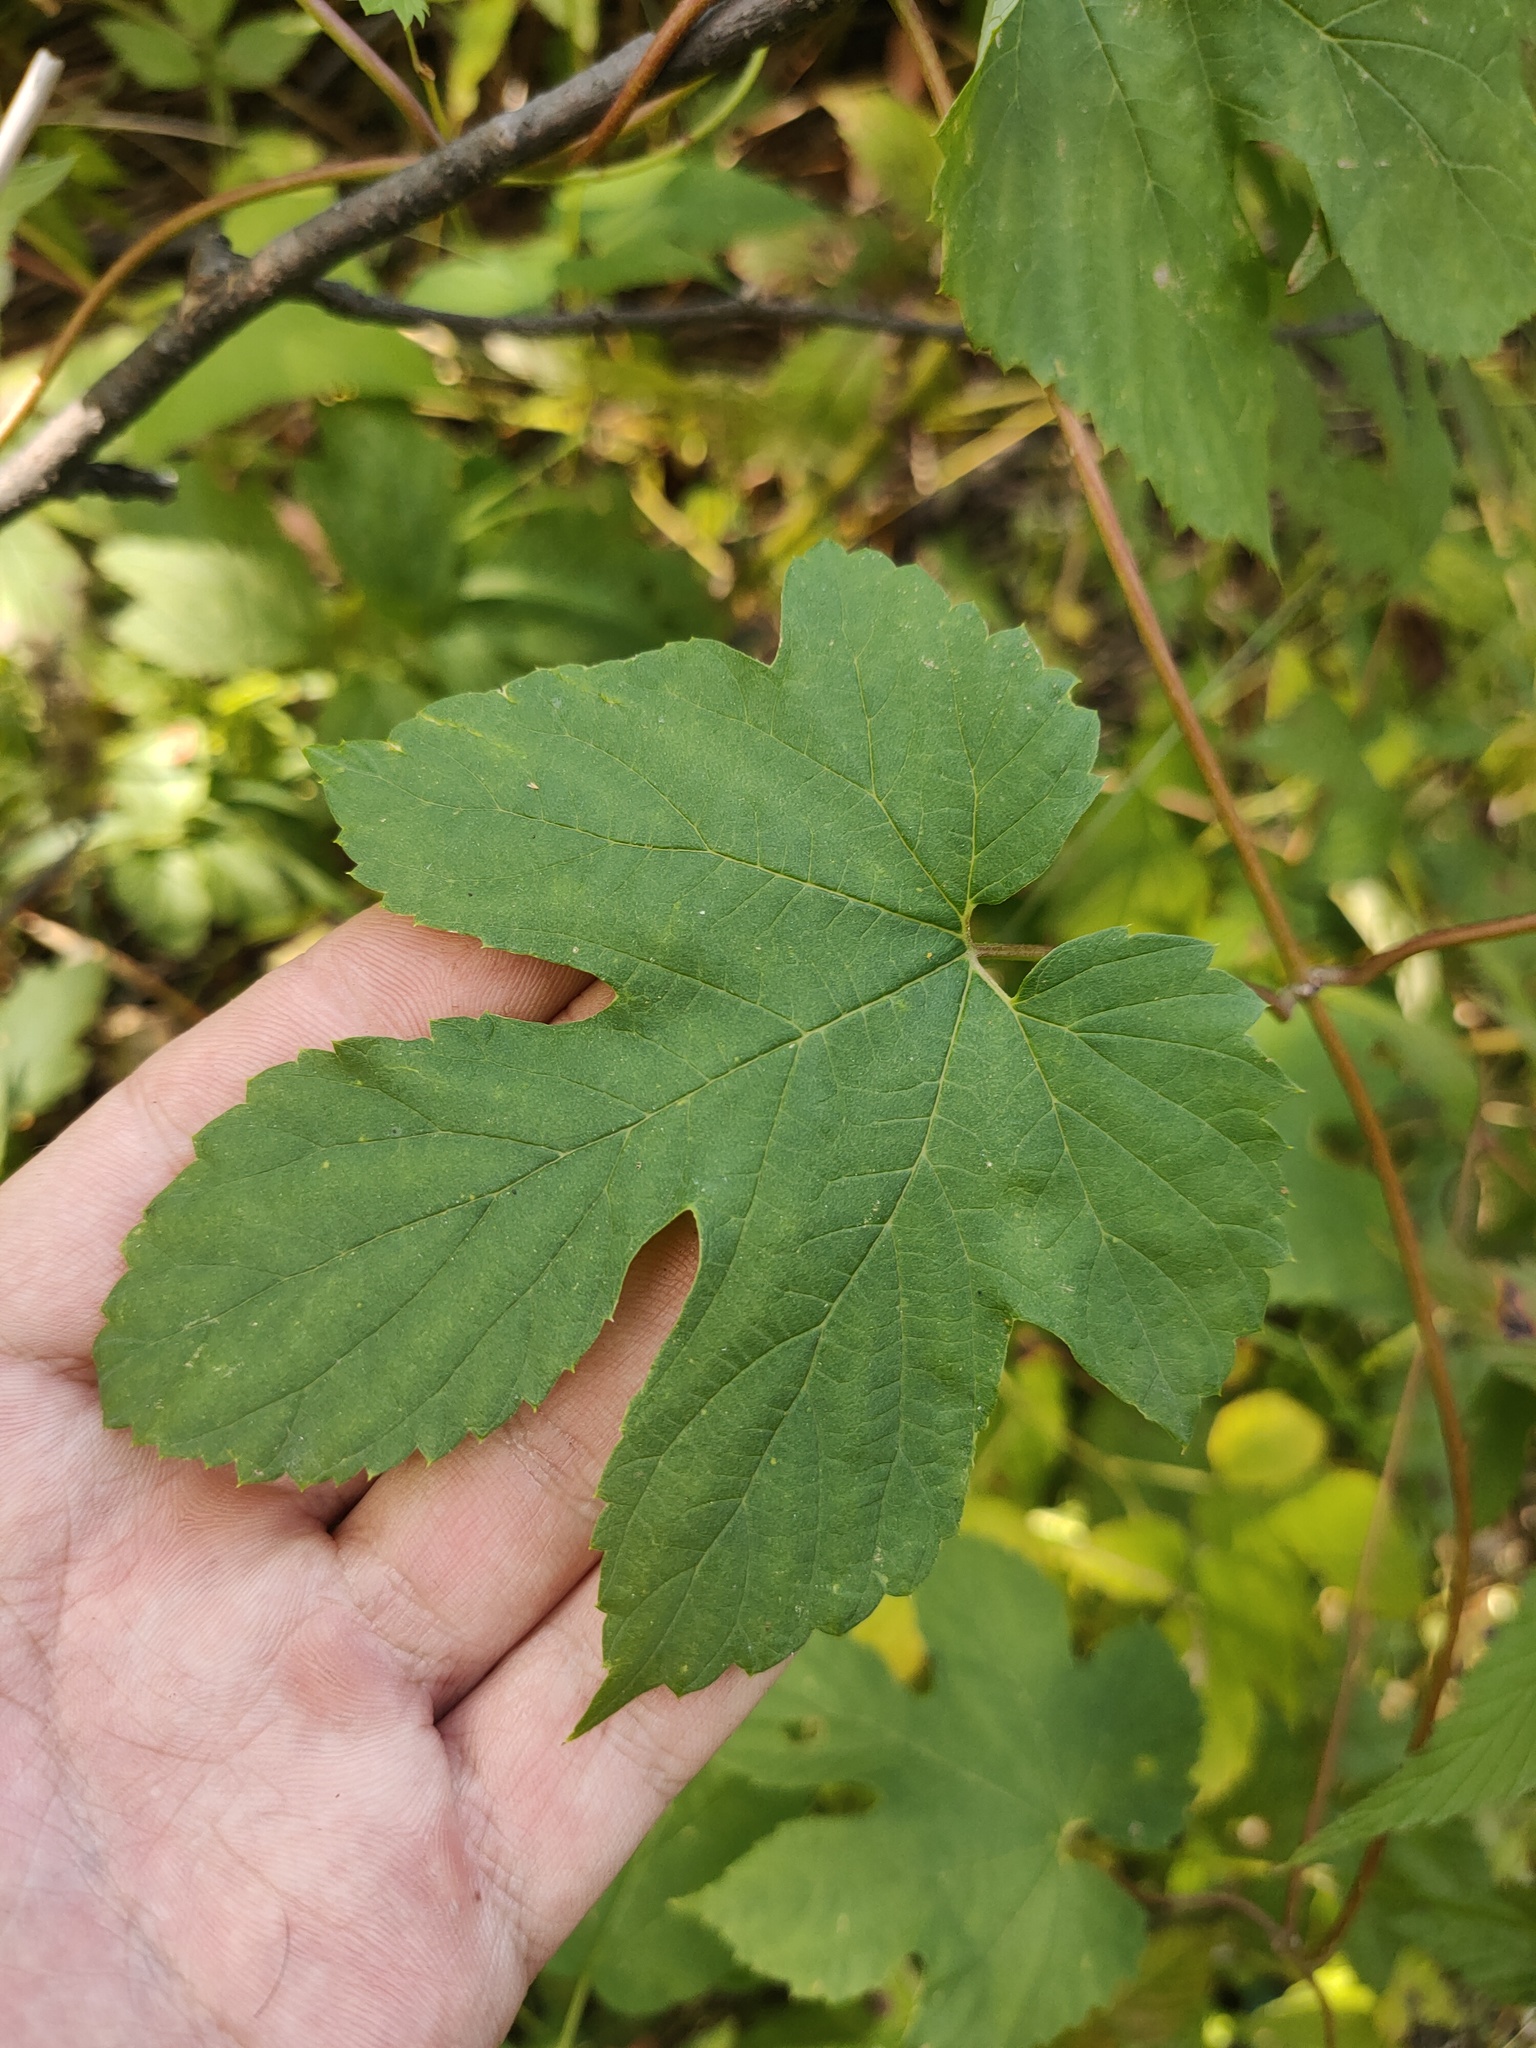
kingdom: Plantae
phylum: Tracheophyta
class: Magnoliopsida
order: Rosales
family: Cannabaceae
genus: Humulus
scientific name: Humulus lupulus
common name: Hop
